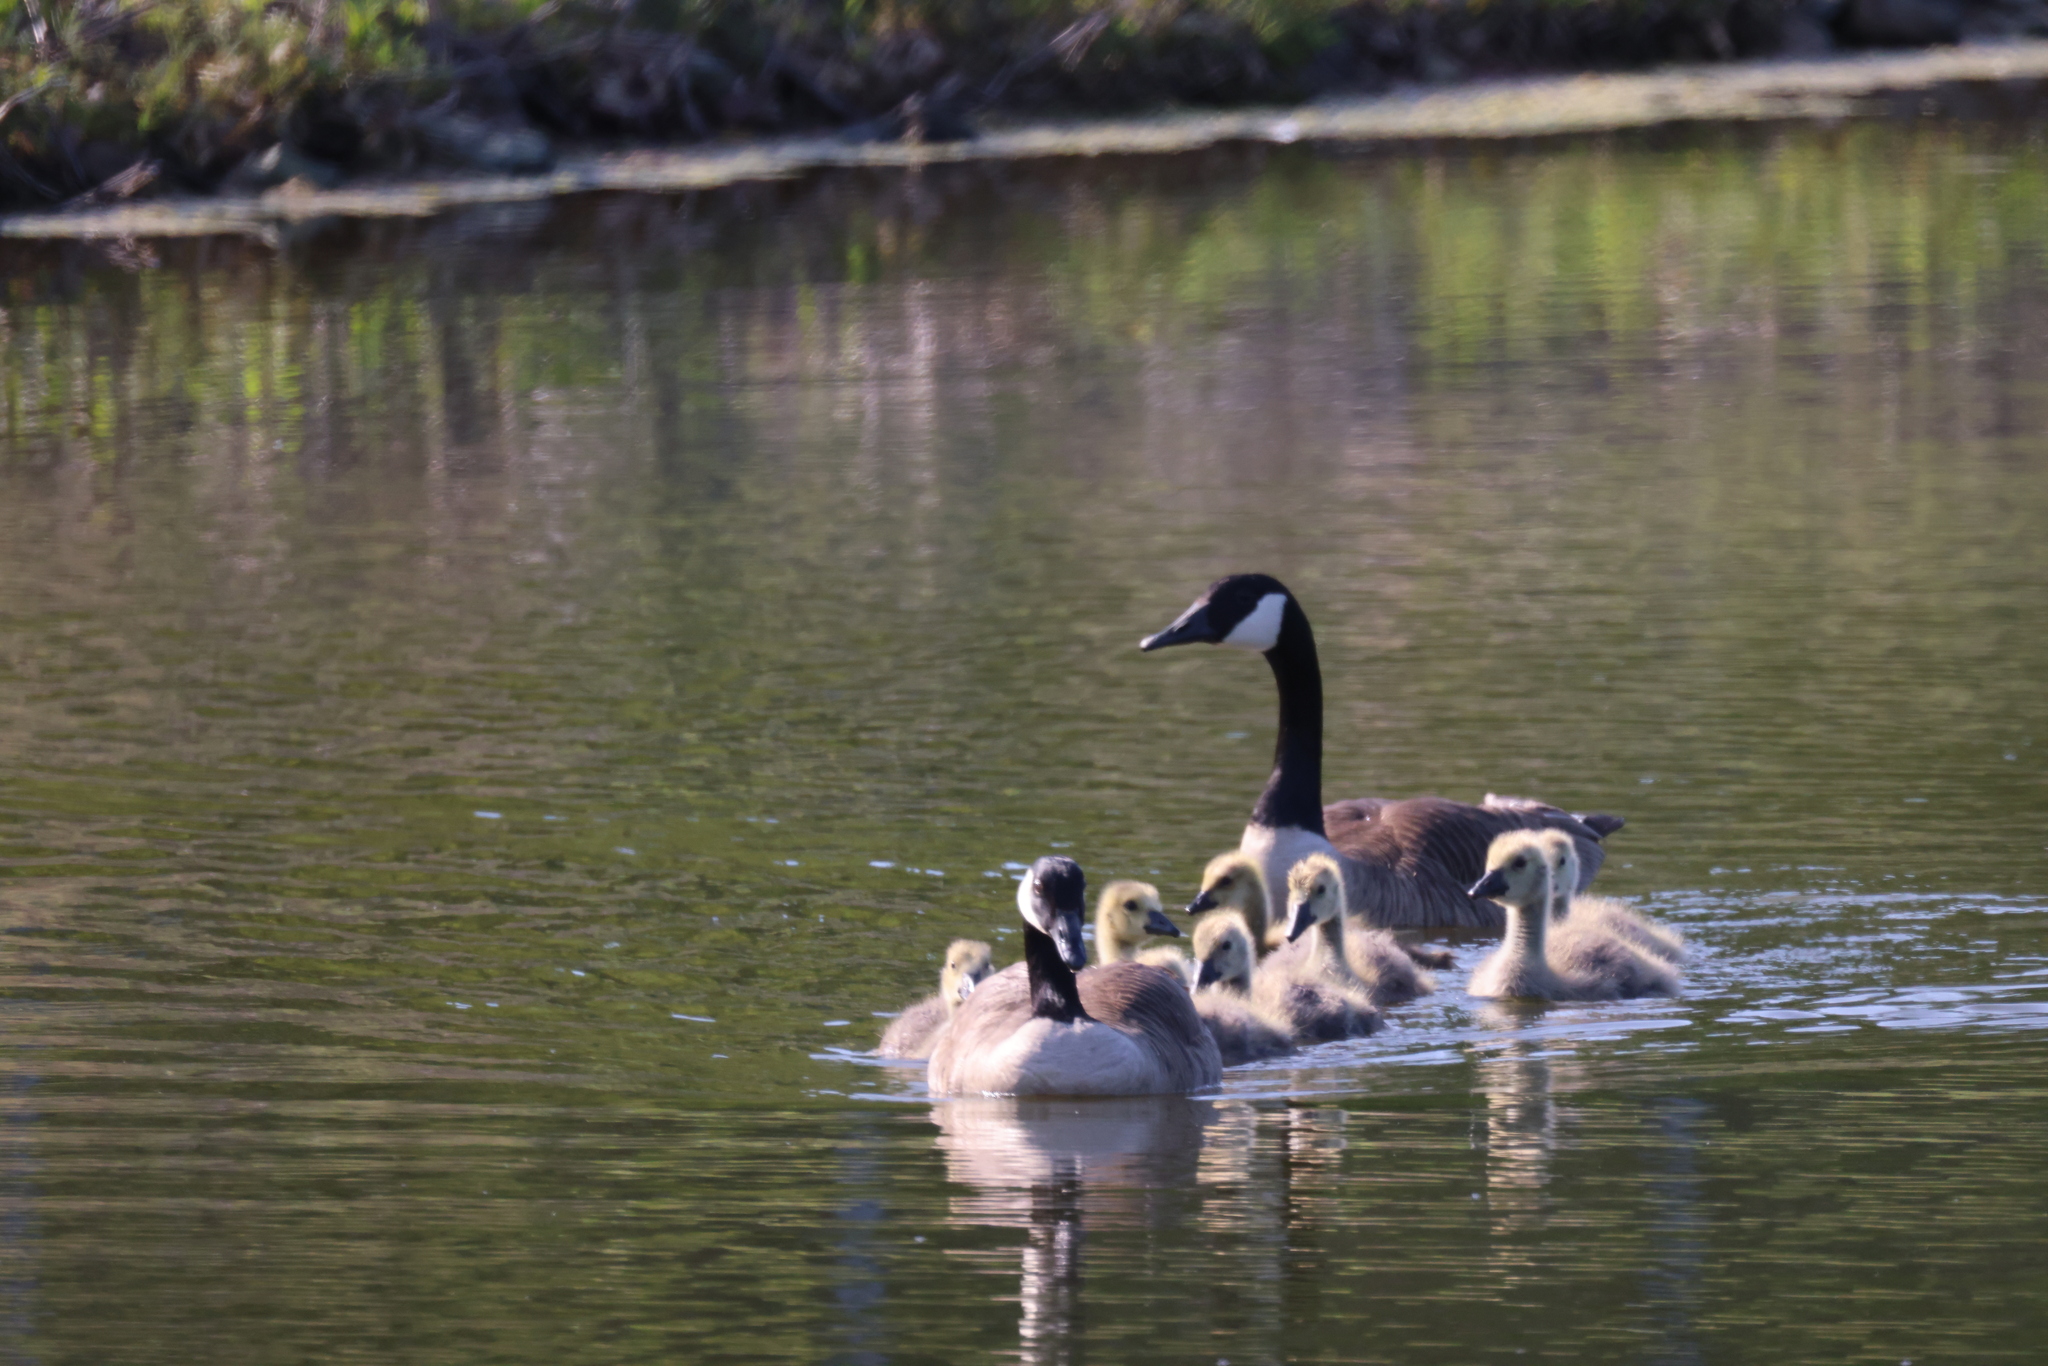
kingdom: Animalia
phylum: Chordata
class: Aves
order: Anseriformes
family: Anatidae
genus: Branta
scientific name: Branta canadensis
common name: Canada goose
